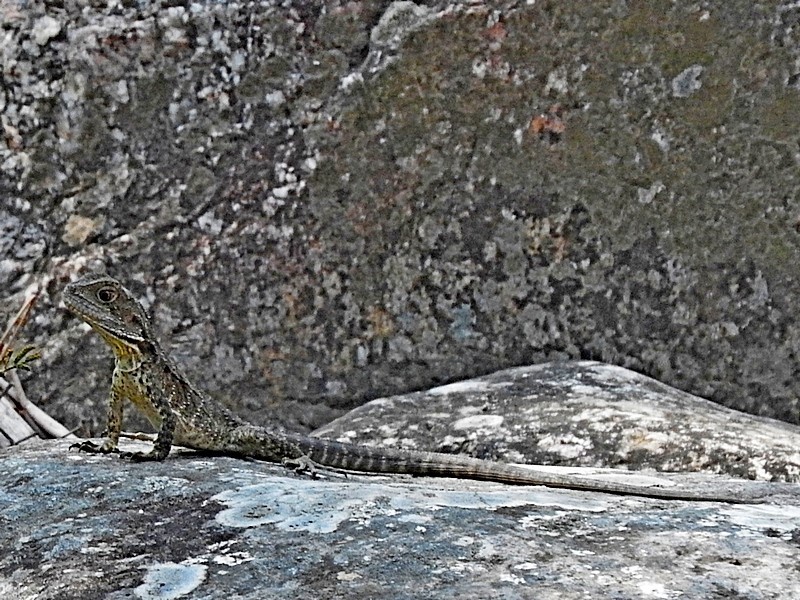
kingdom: Animalia
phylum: Chordata
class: Squamata
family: Agamidae
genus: Intellagama
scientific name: Intellagama lesueurii
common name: Eastern water dragon
